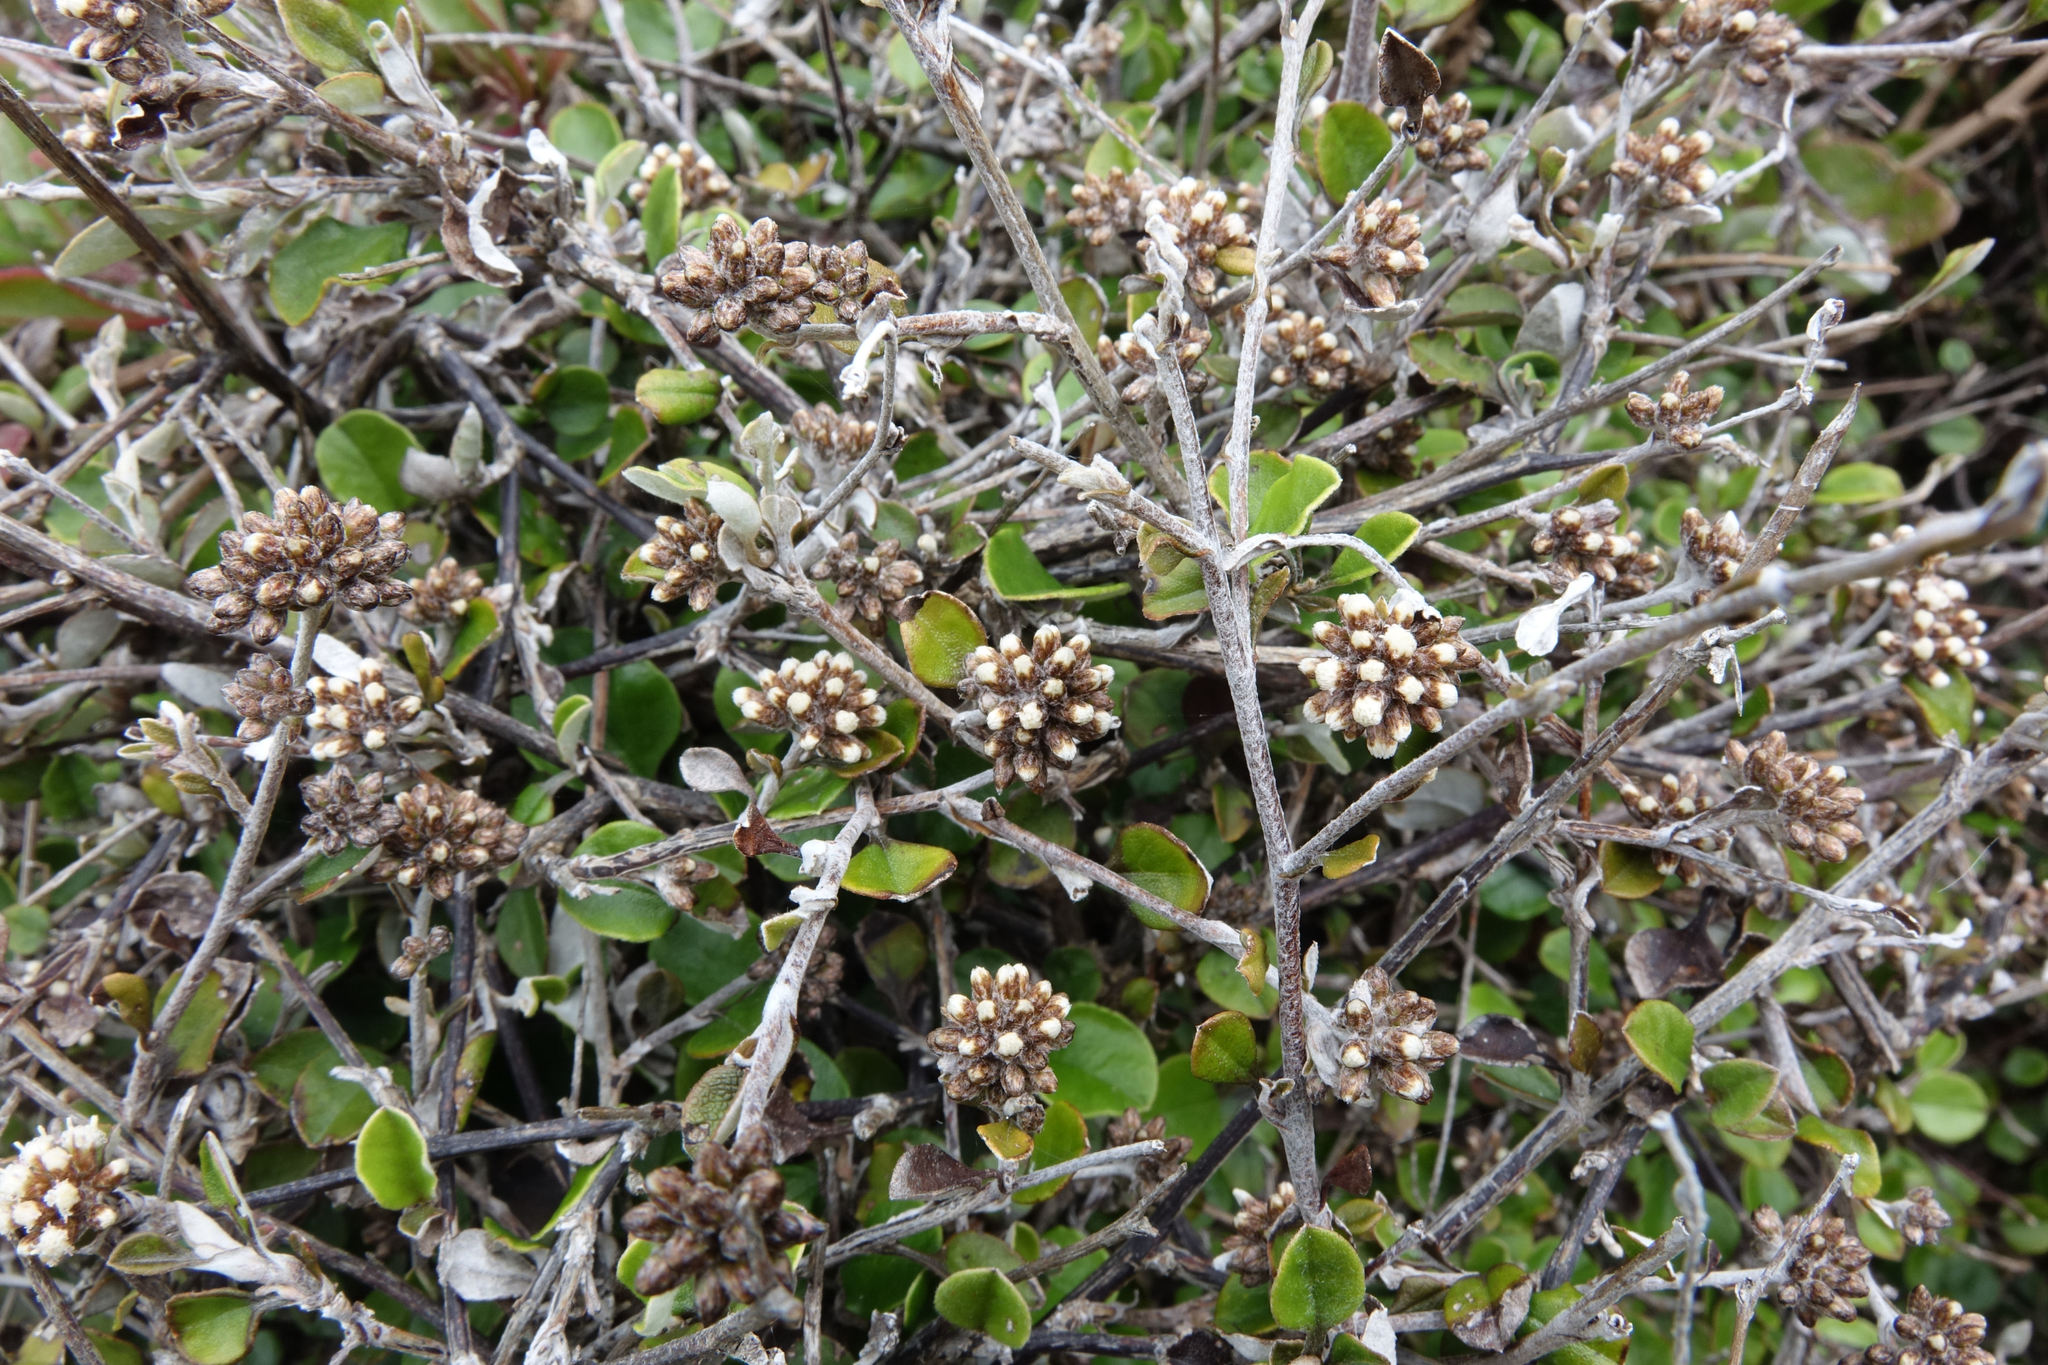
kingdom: Plantae
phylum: Tracheophyta
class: Magnoliopsida
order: Asterales
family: Asteraceae
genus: Ozothamnus
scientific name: Ozothamnus glomeratus
